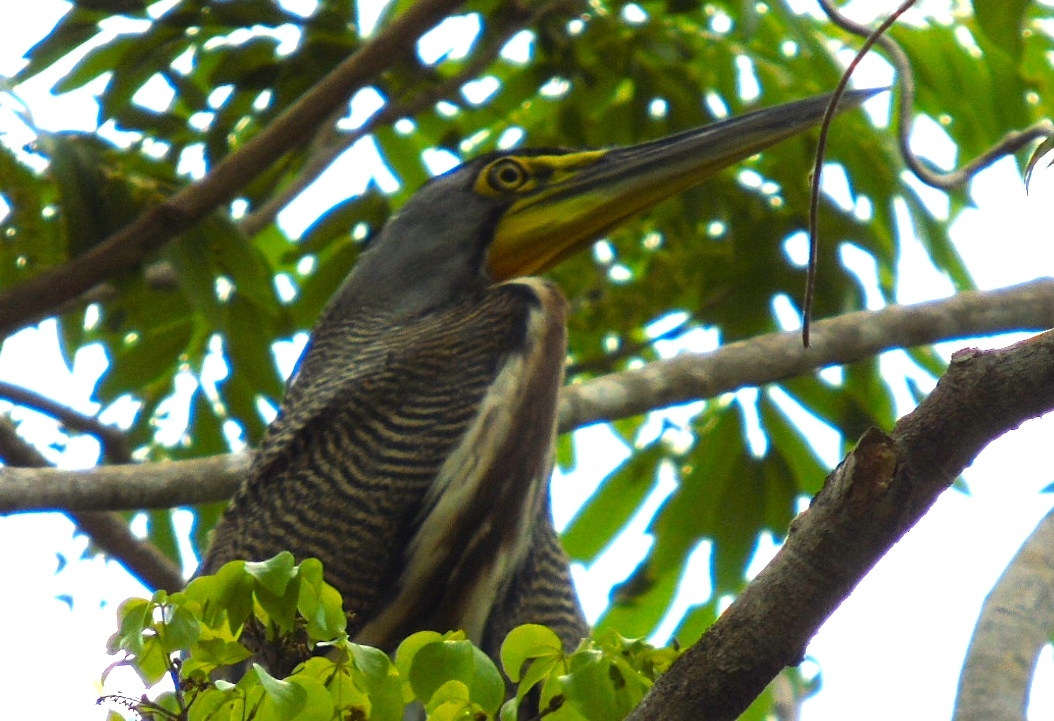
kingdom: Animalia
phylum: Chordata
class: Aves
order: Pelecaniformes
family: Ardeidae
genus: Tigrisoma
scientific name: Tigrisoma mexicanum
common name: Bare-throated tiger-heron
